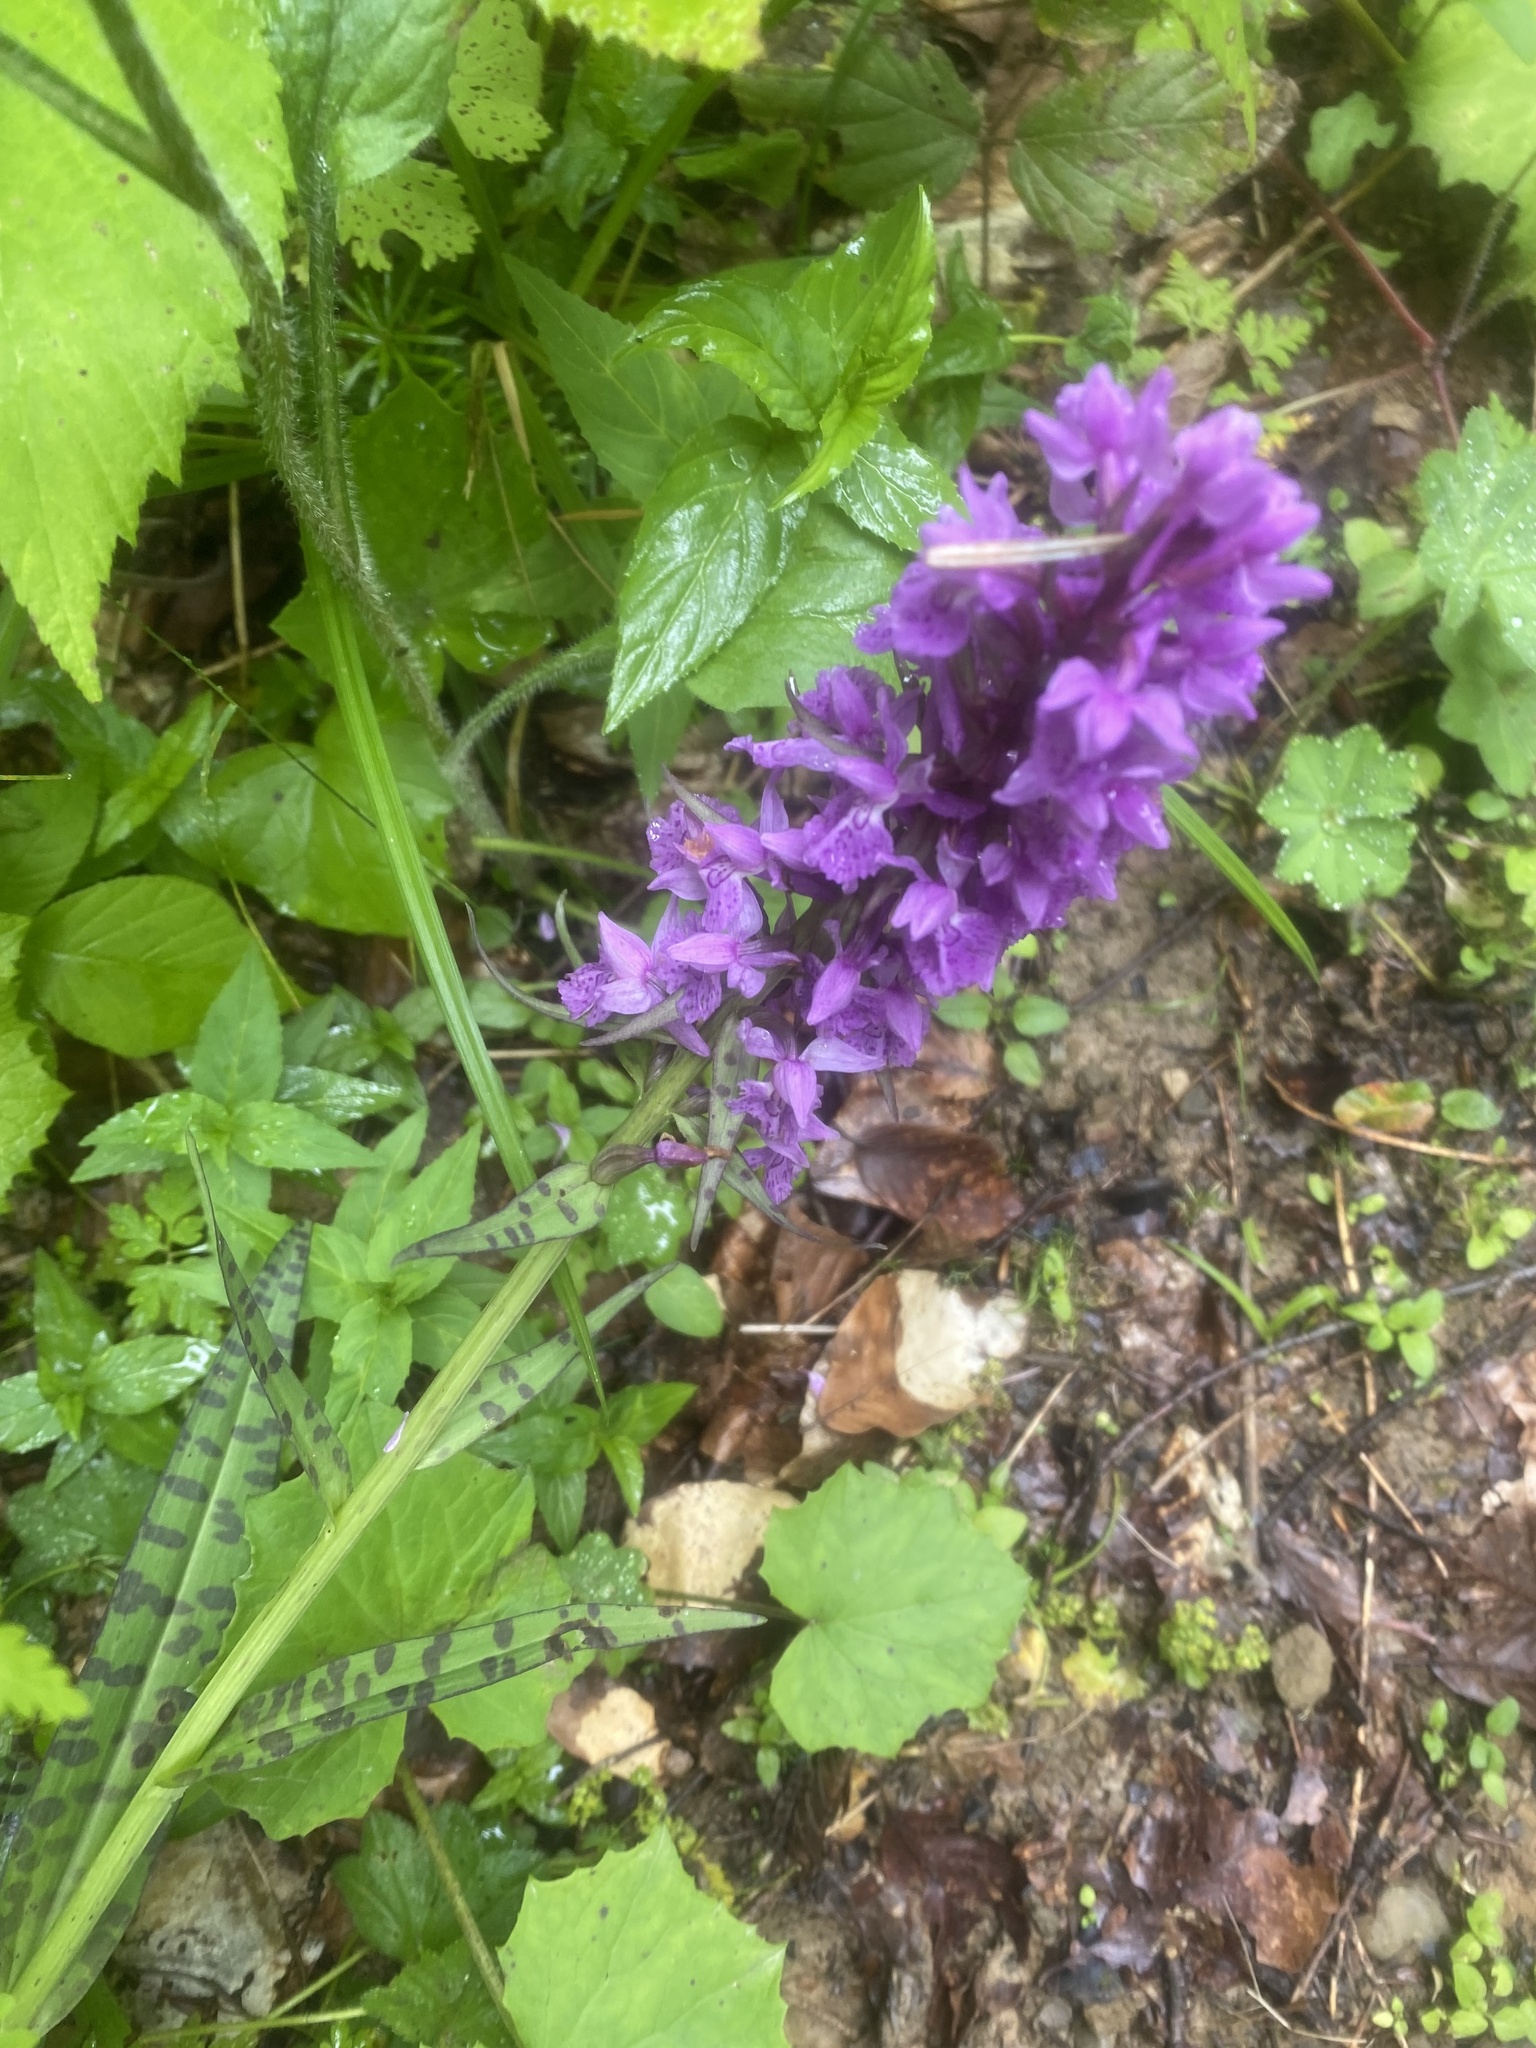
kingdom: Plantae
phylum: Tracheophyta
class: Liliopsida
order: Asparagales
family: Orchidaceae
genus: Dactylorhiza
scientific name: Dactylorhiza urvilleana
